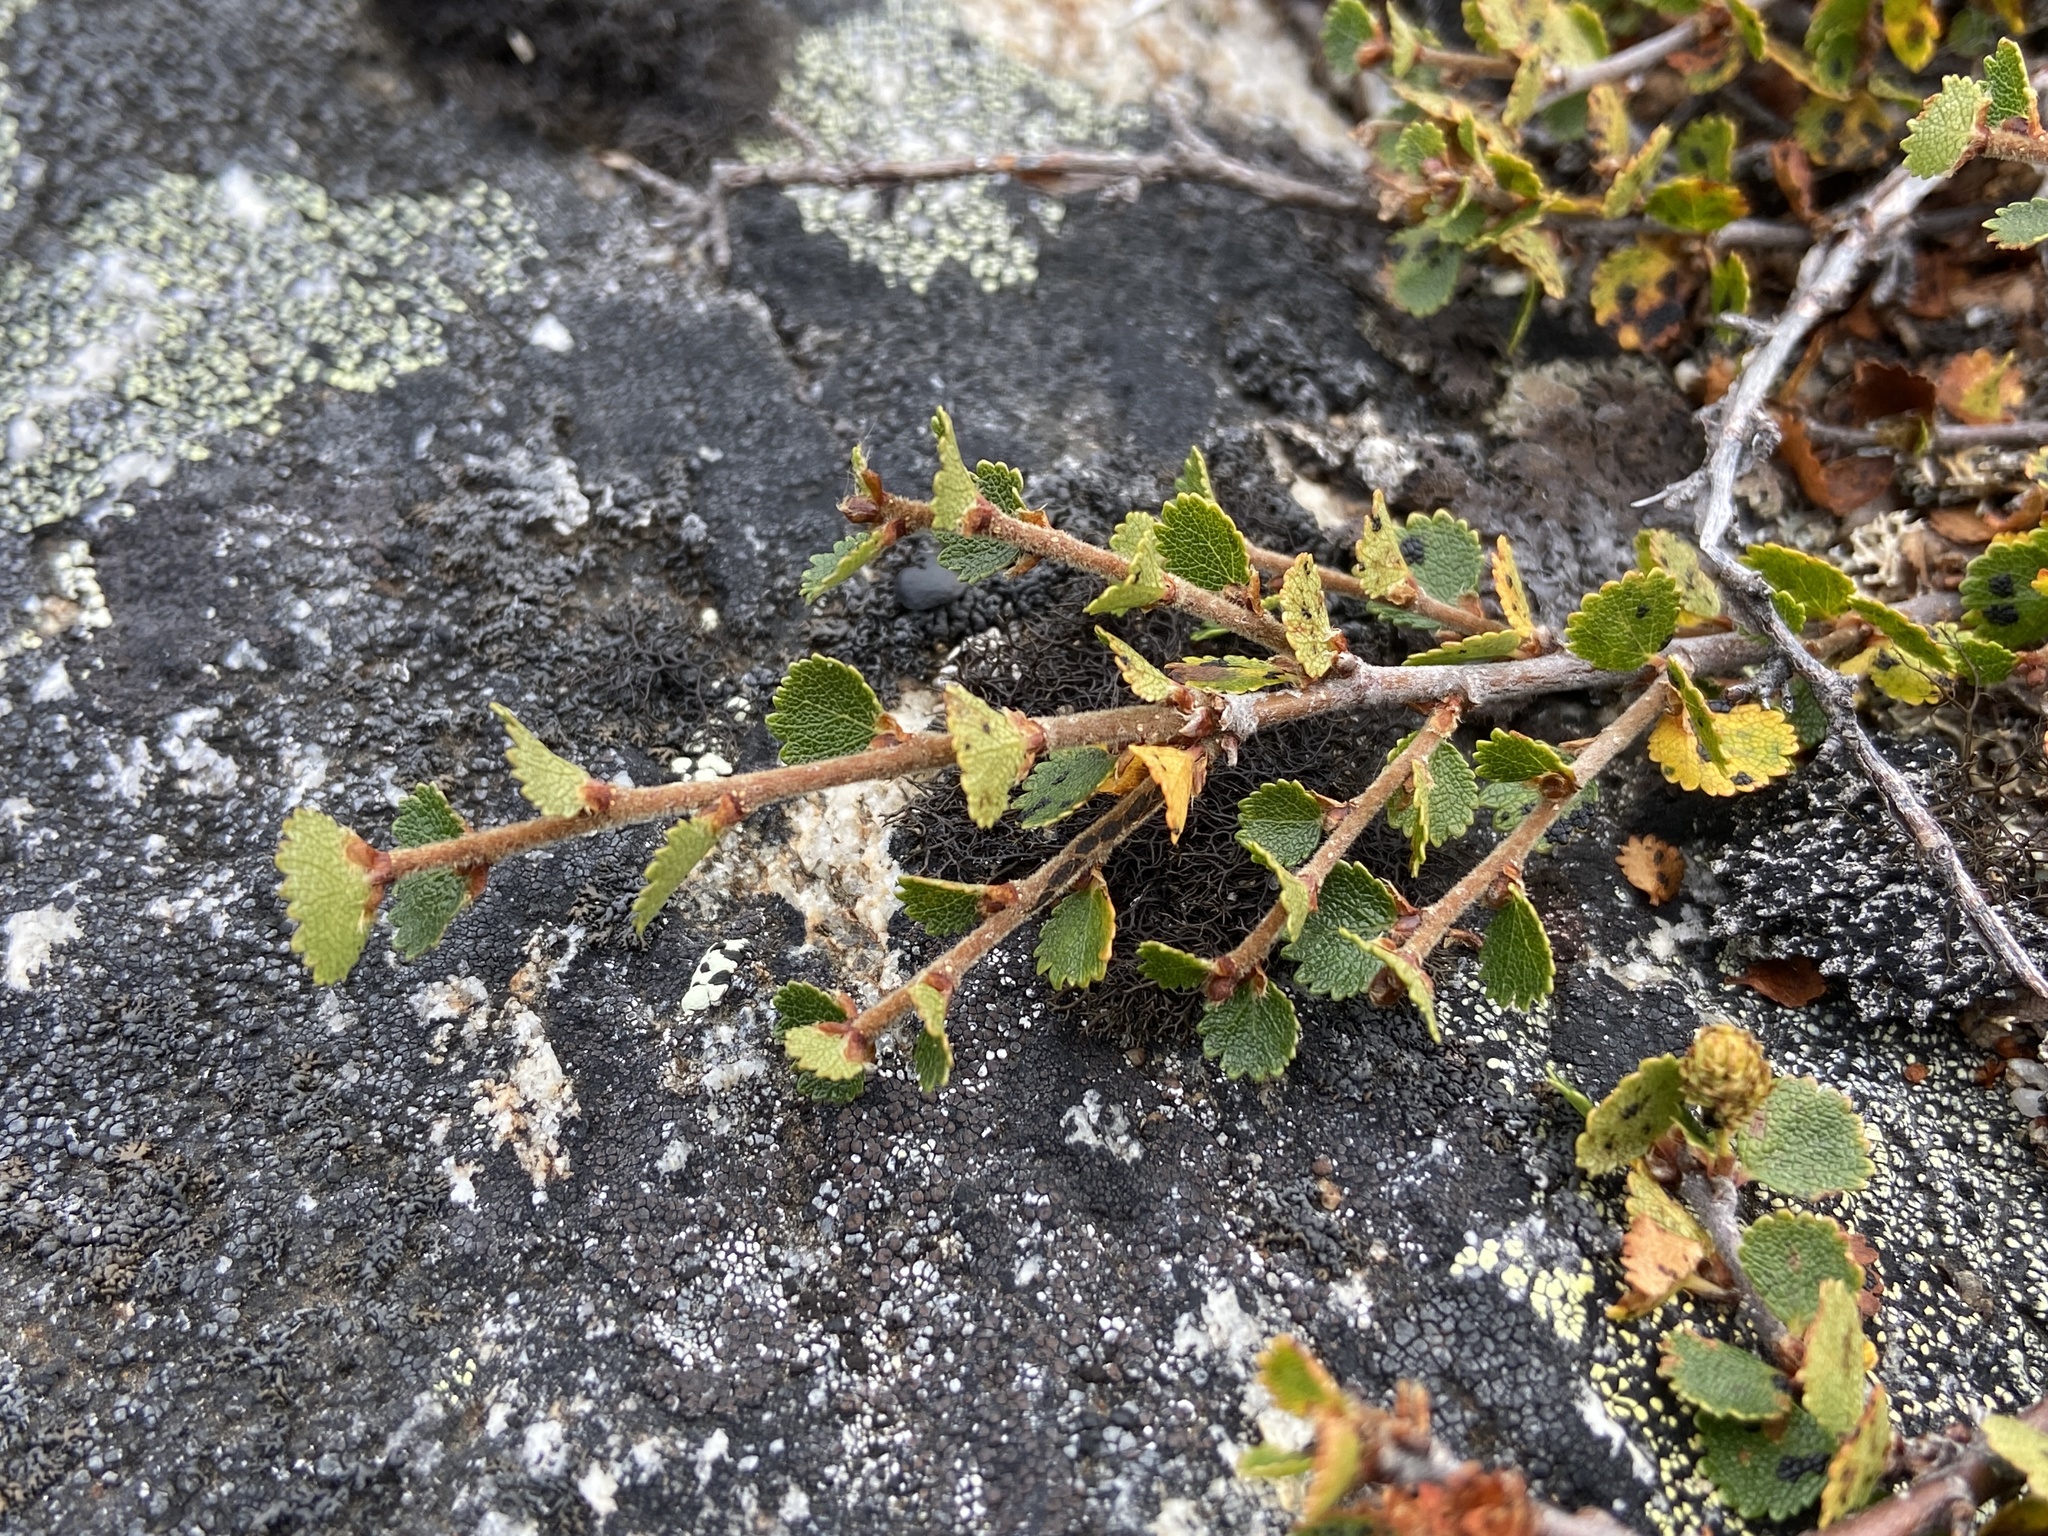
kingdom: Plantae
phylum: Tracheophyta
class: Magnoliopsida
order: Fagales
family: Betulaceae
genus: Betula
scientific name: Betula nana
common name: Arctic dwarf birch
